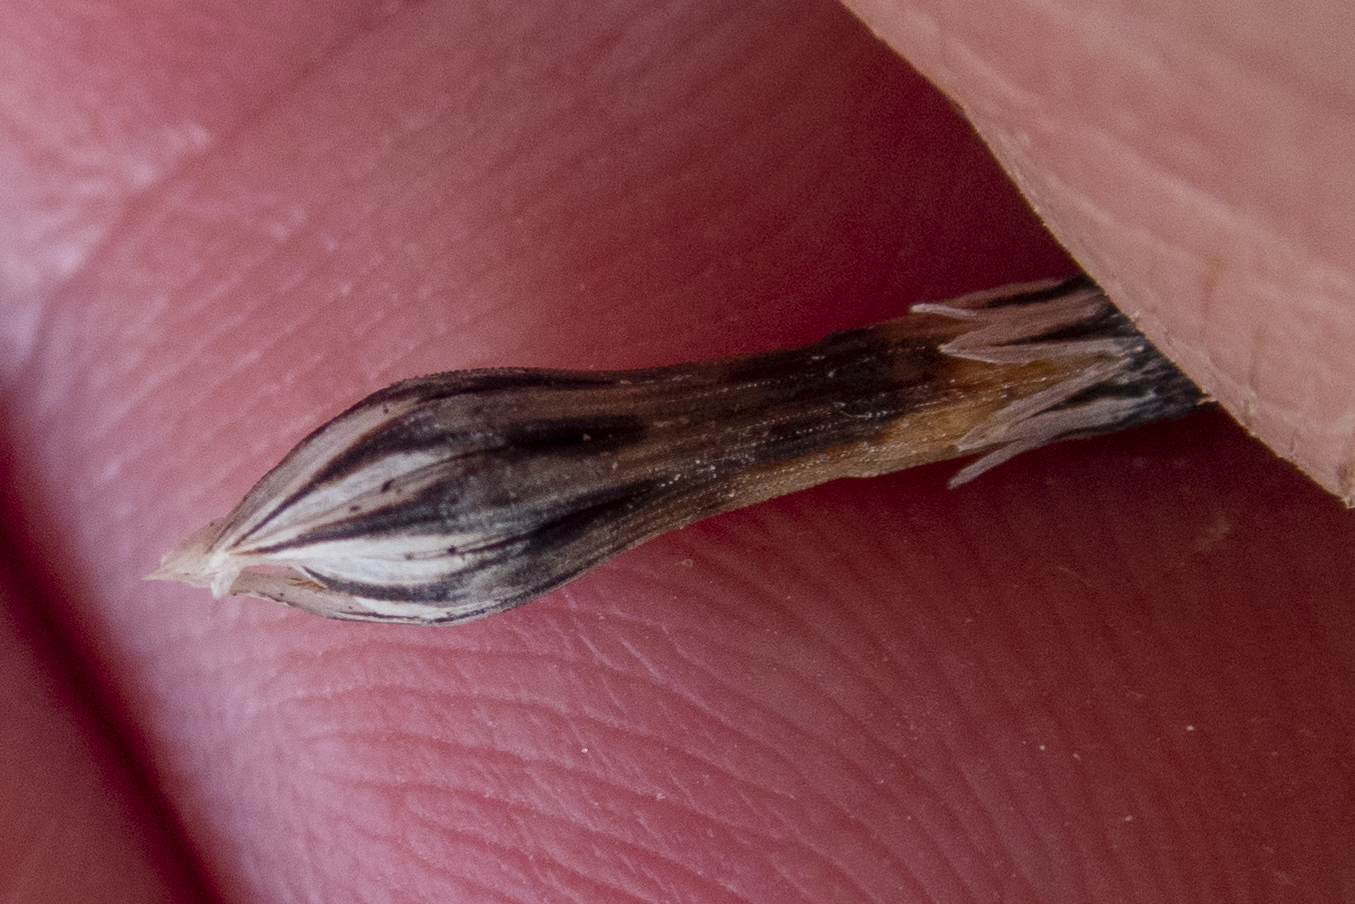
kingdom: Plantae
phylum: Tracheophyta
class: Polypodiopsida
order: Equisetales
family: Equisetaceae
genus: Equisetum
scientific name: Equisetum variegatum
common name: Variegated horsetail
